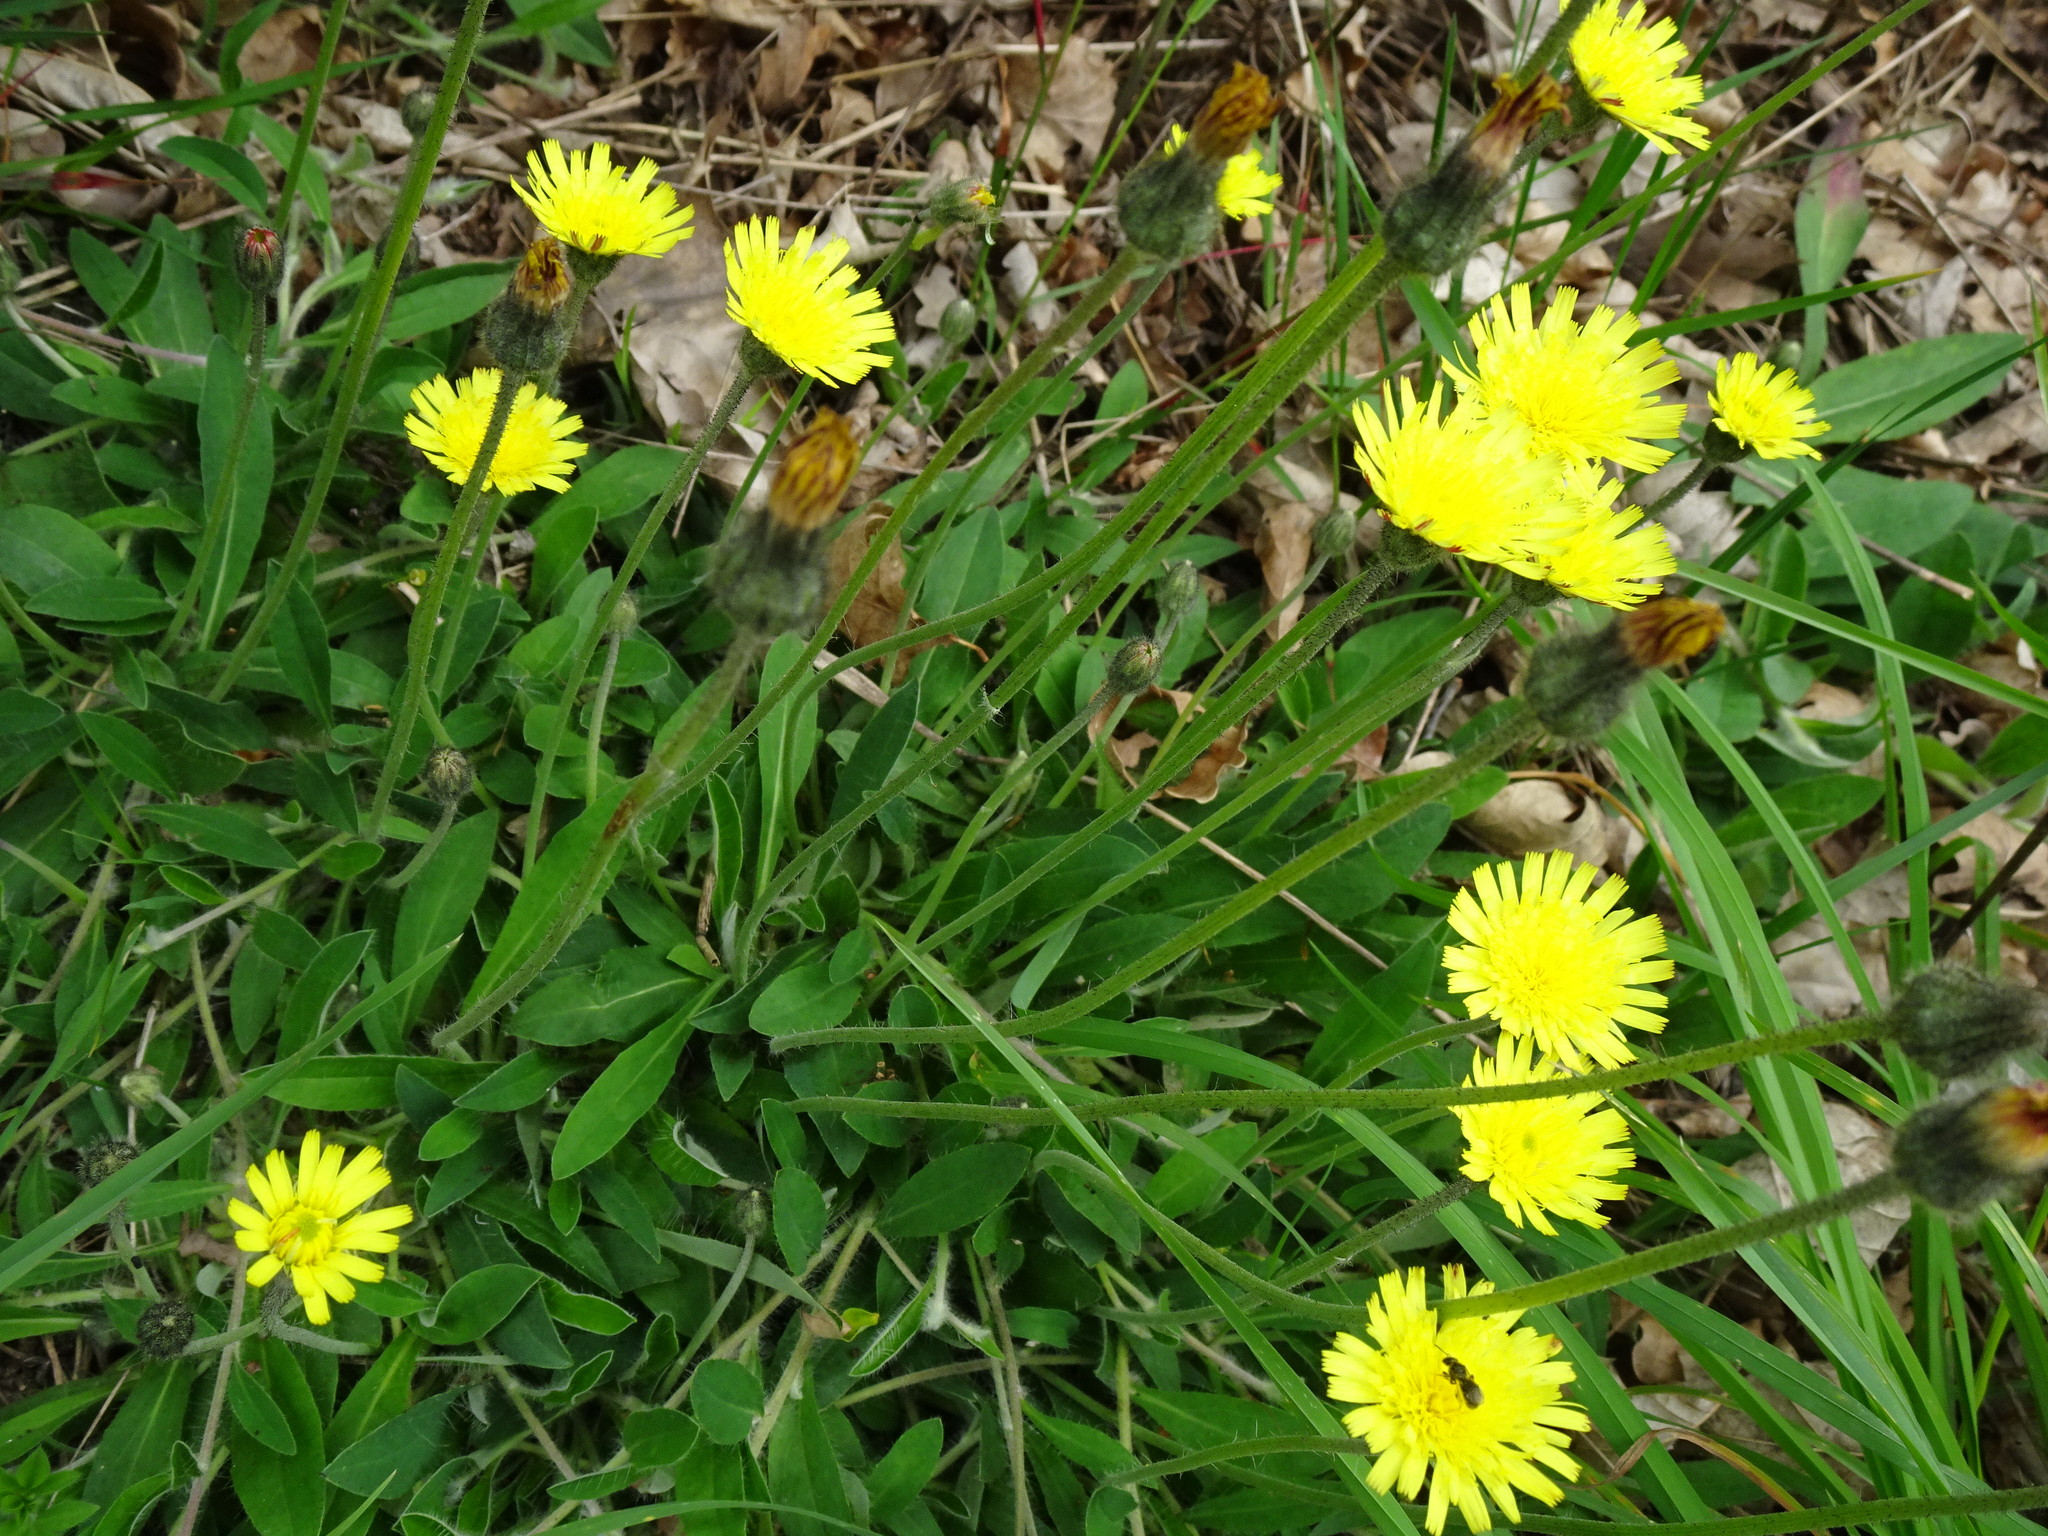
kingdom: Plantae
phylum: Tracheophyta
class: Magnoliopsida
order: Asterales
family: Asteraceae
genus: Pilosella
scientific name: Pilosella officinarum
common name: Mouse-ear hawkweed
